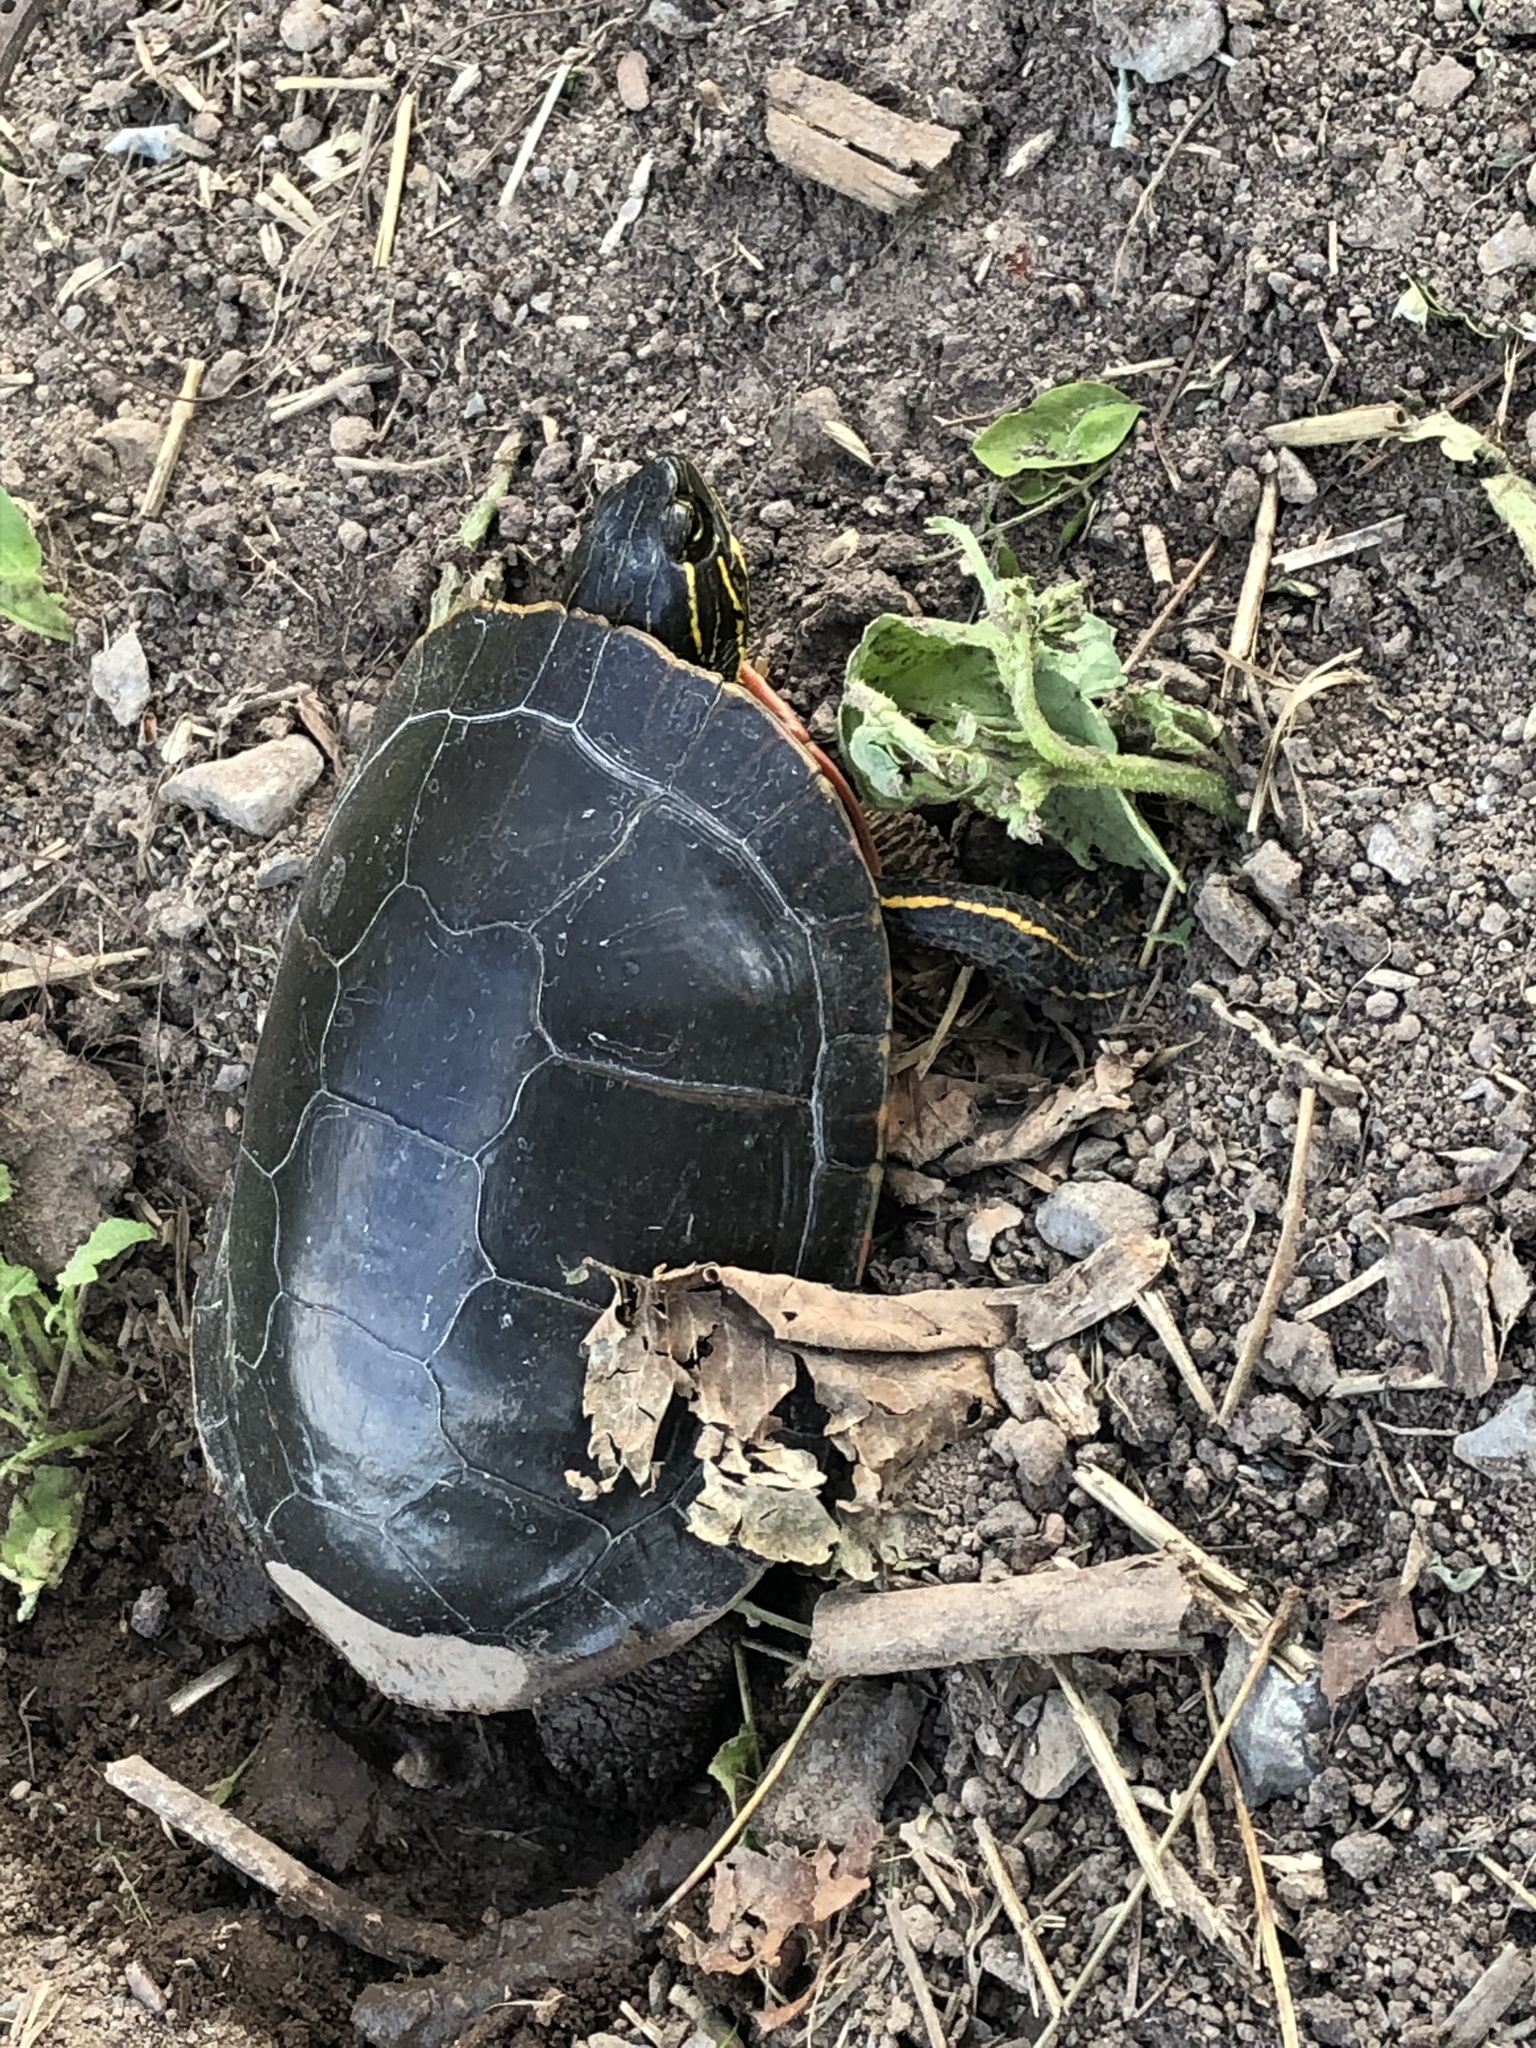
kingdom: Animalia
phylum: Chordata
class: Testudines
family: Emydidae
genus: Chrysemys
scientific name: Chrysemys picta
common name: Painted turtle
